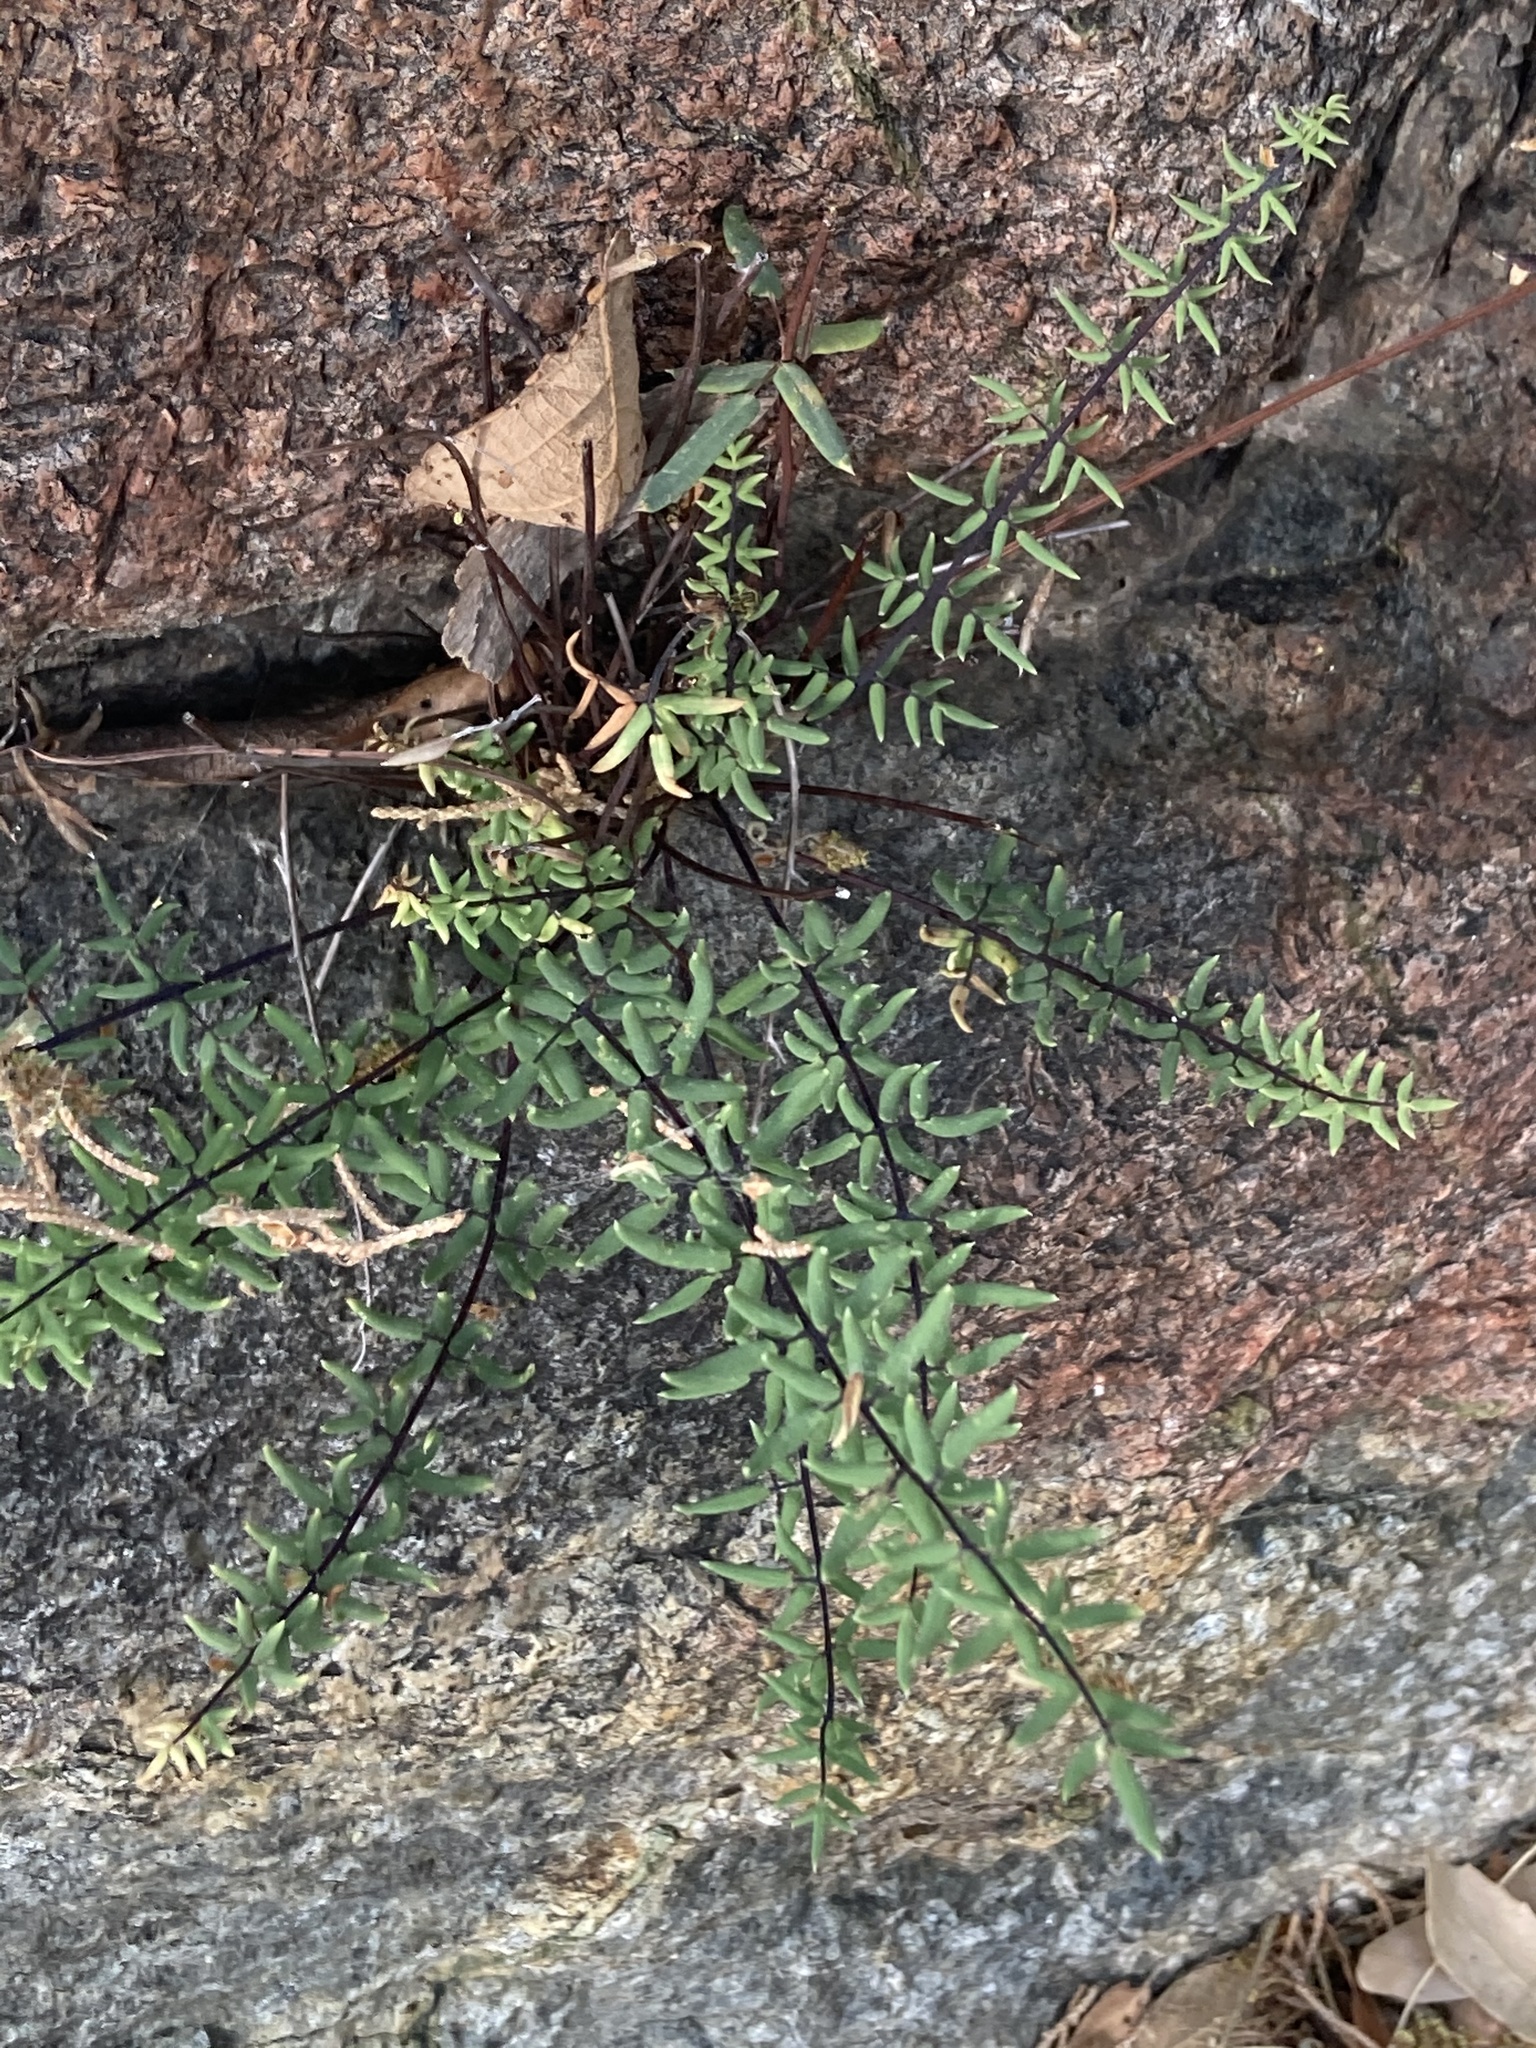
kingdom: Plantae
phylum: Tracheophyta
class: Polypodiopsida
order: Polypodiales
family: Pteridaceae
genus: Pellaea
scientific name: Pellaea wrightiana
